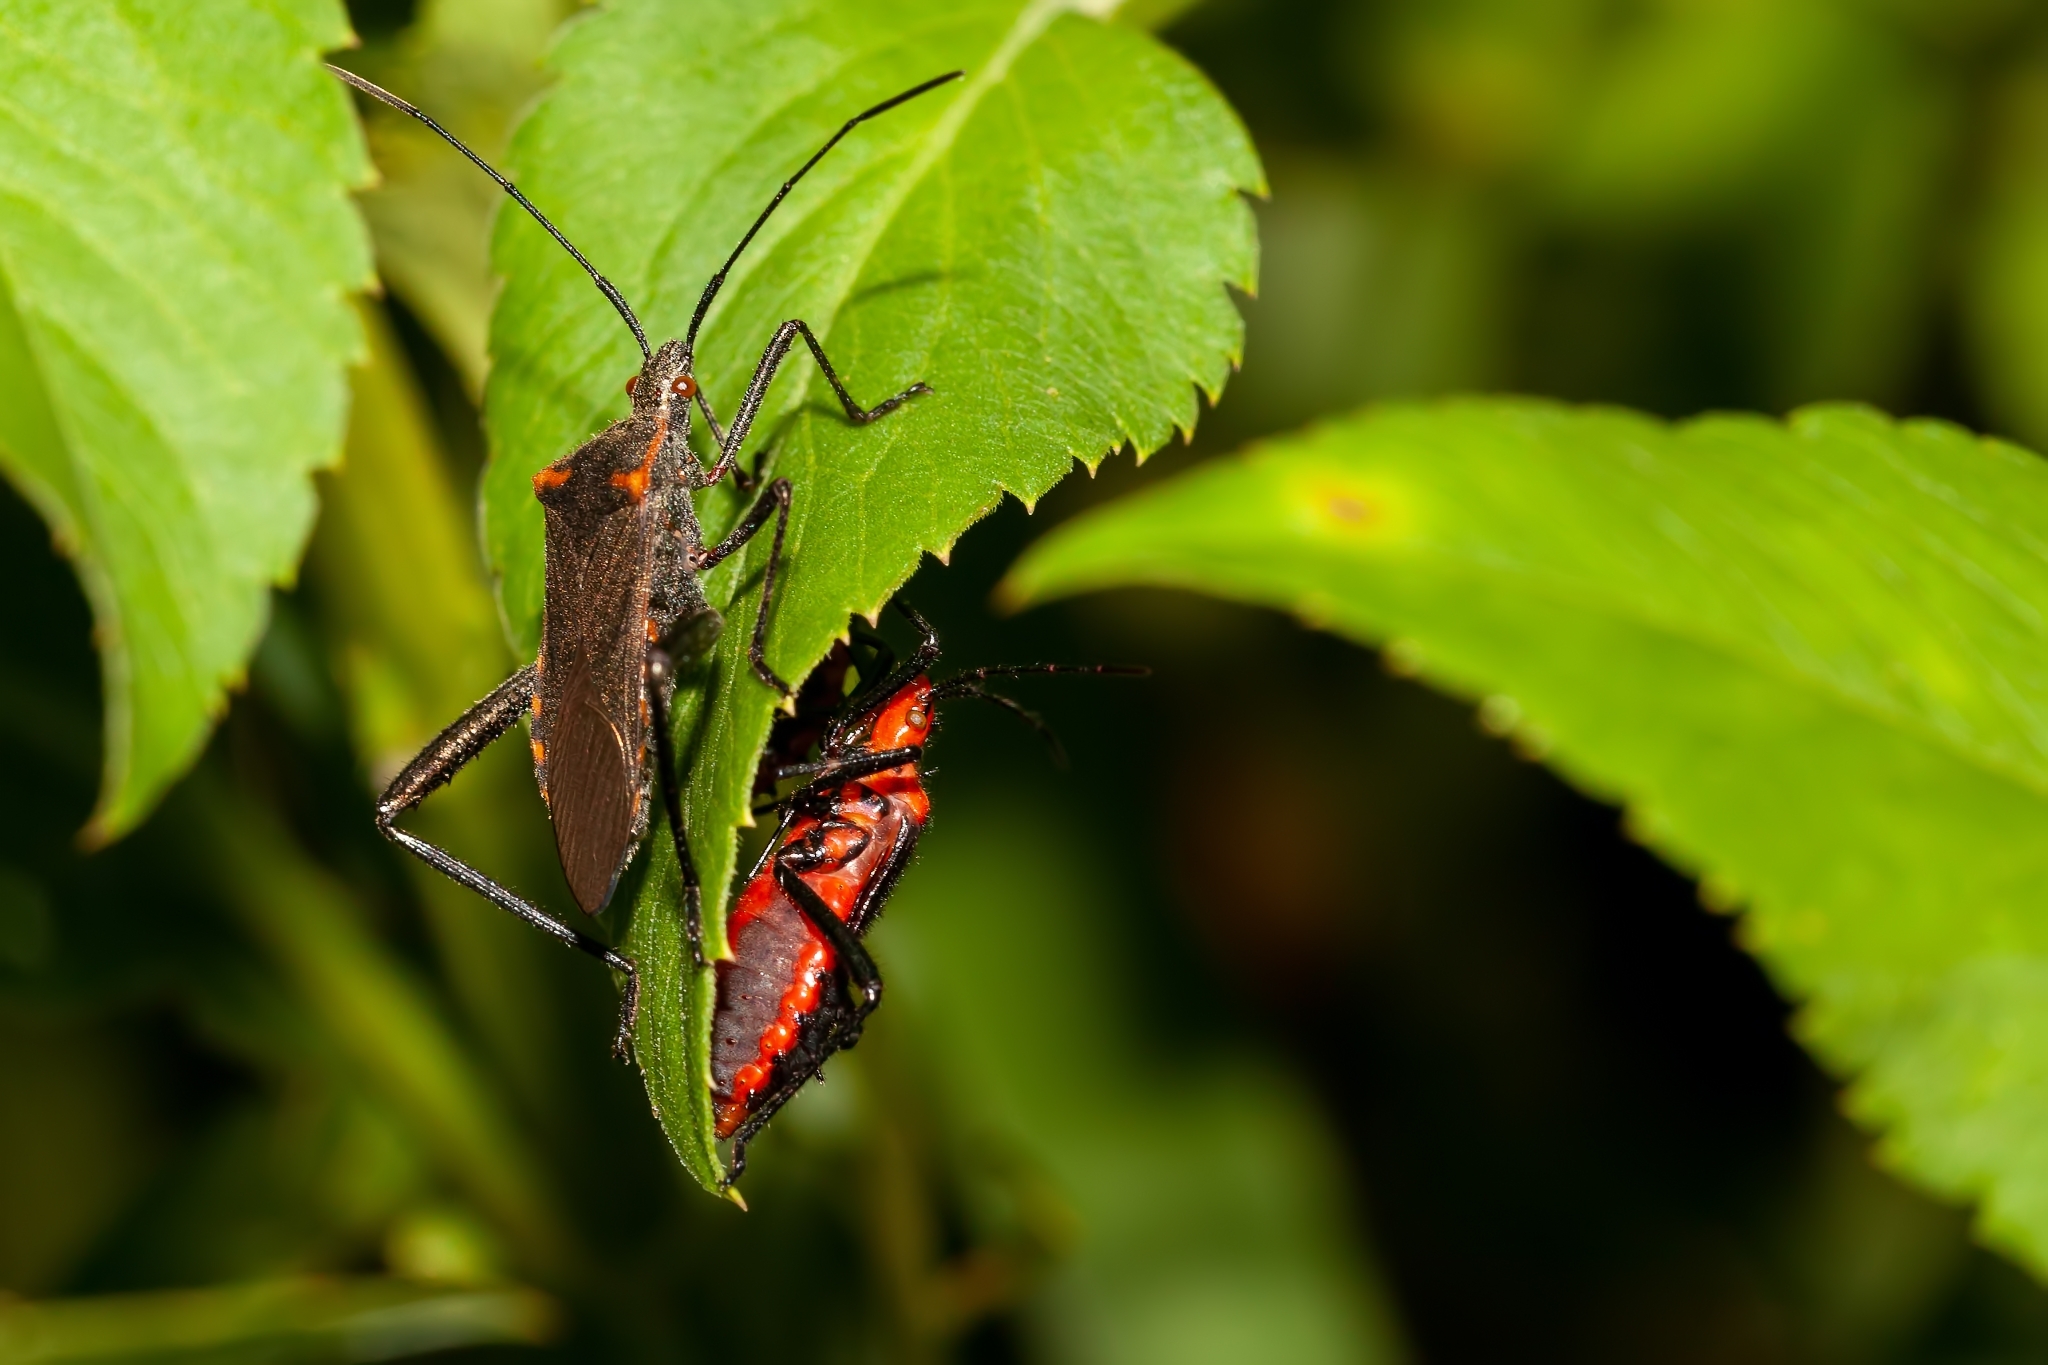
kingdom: Animalia
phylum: Arthropoda
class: Insecta
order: Hemiptera
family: Coreidae
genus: Phthiacnemia
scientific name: Phthiacnemia picta
